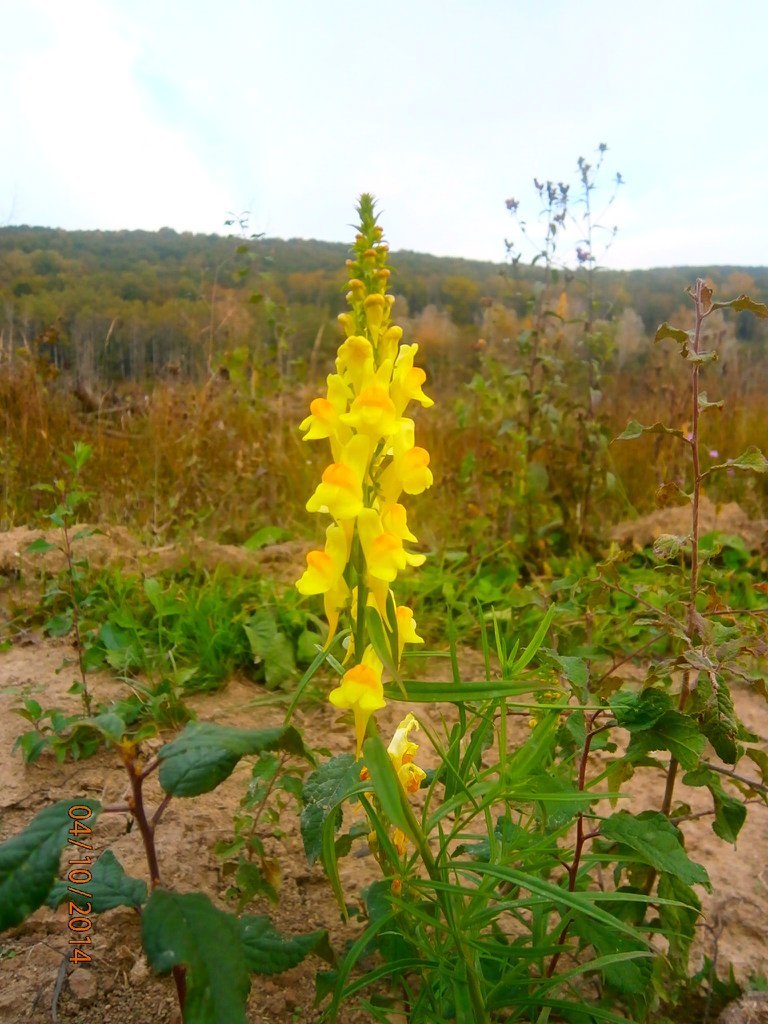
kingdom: Plantae
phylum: Tracheophyta
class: Magnoliopsida
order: Lamiales
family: Plantaginaceae
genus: Linaria
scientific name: Linaria vulgaris
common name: Butter and eggs
